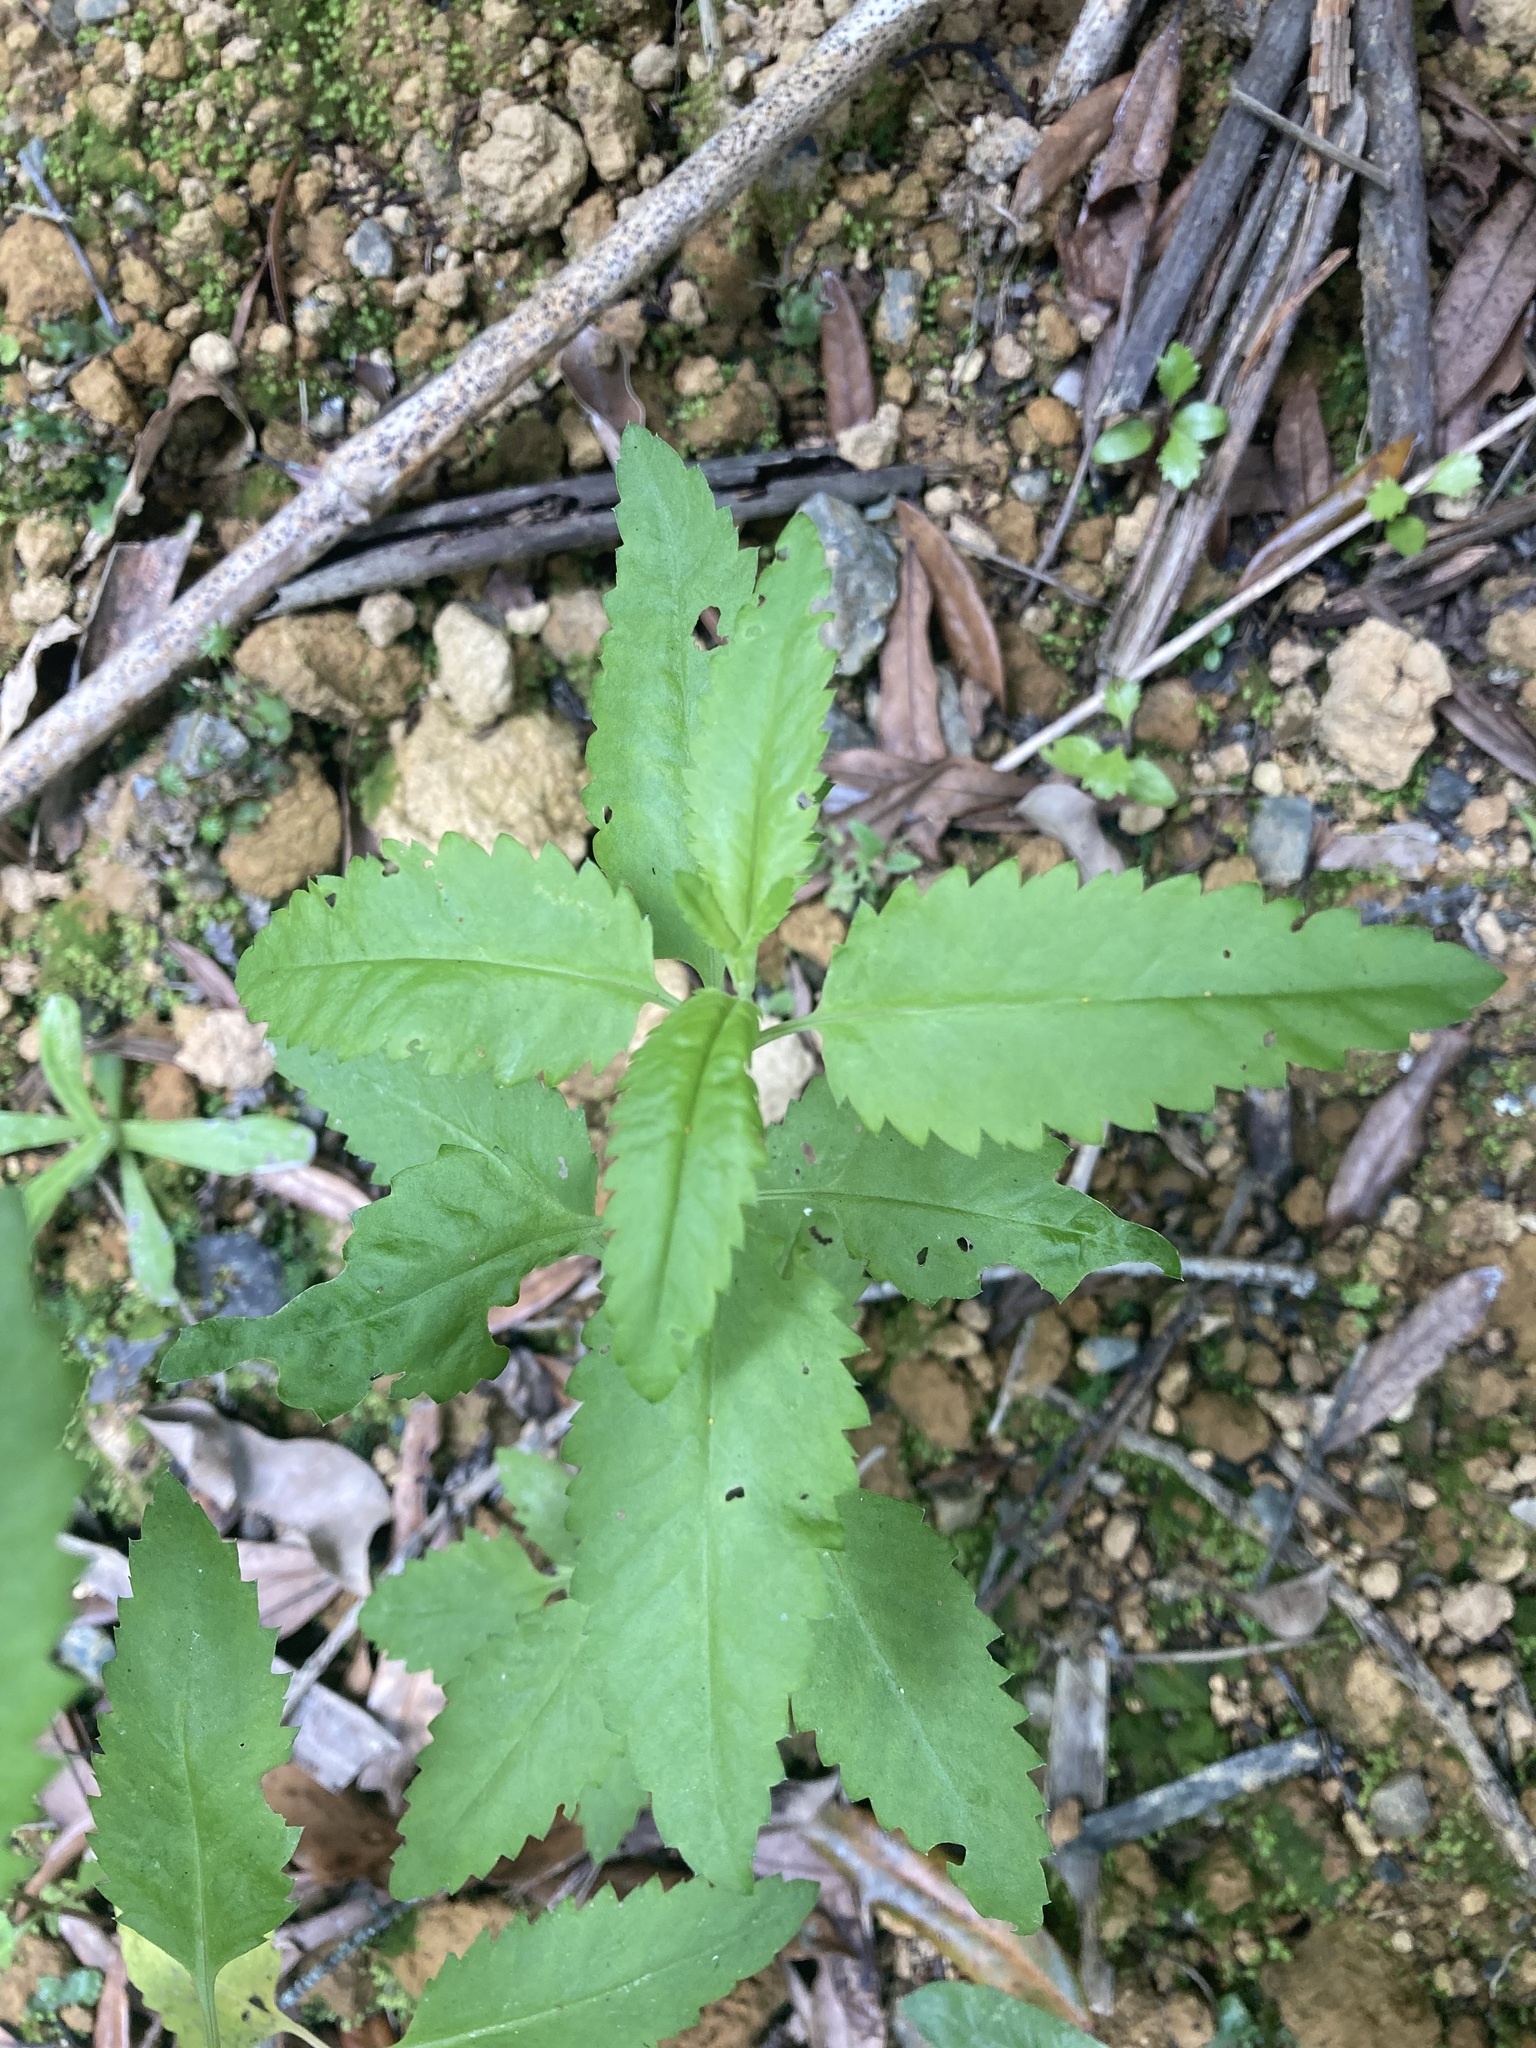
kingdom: Plantae
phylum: Tracheophyta
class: Magnoliopsida
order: Saxifragales
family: Haloragaceae
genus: Haloragis
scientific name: Haloragis erecta
